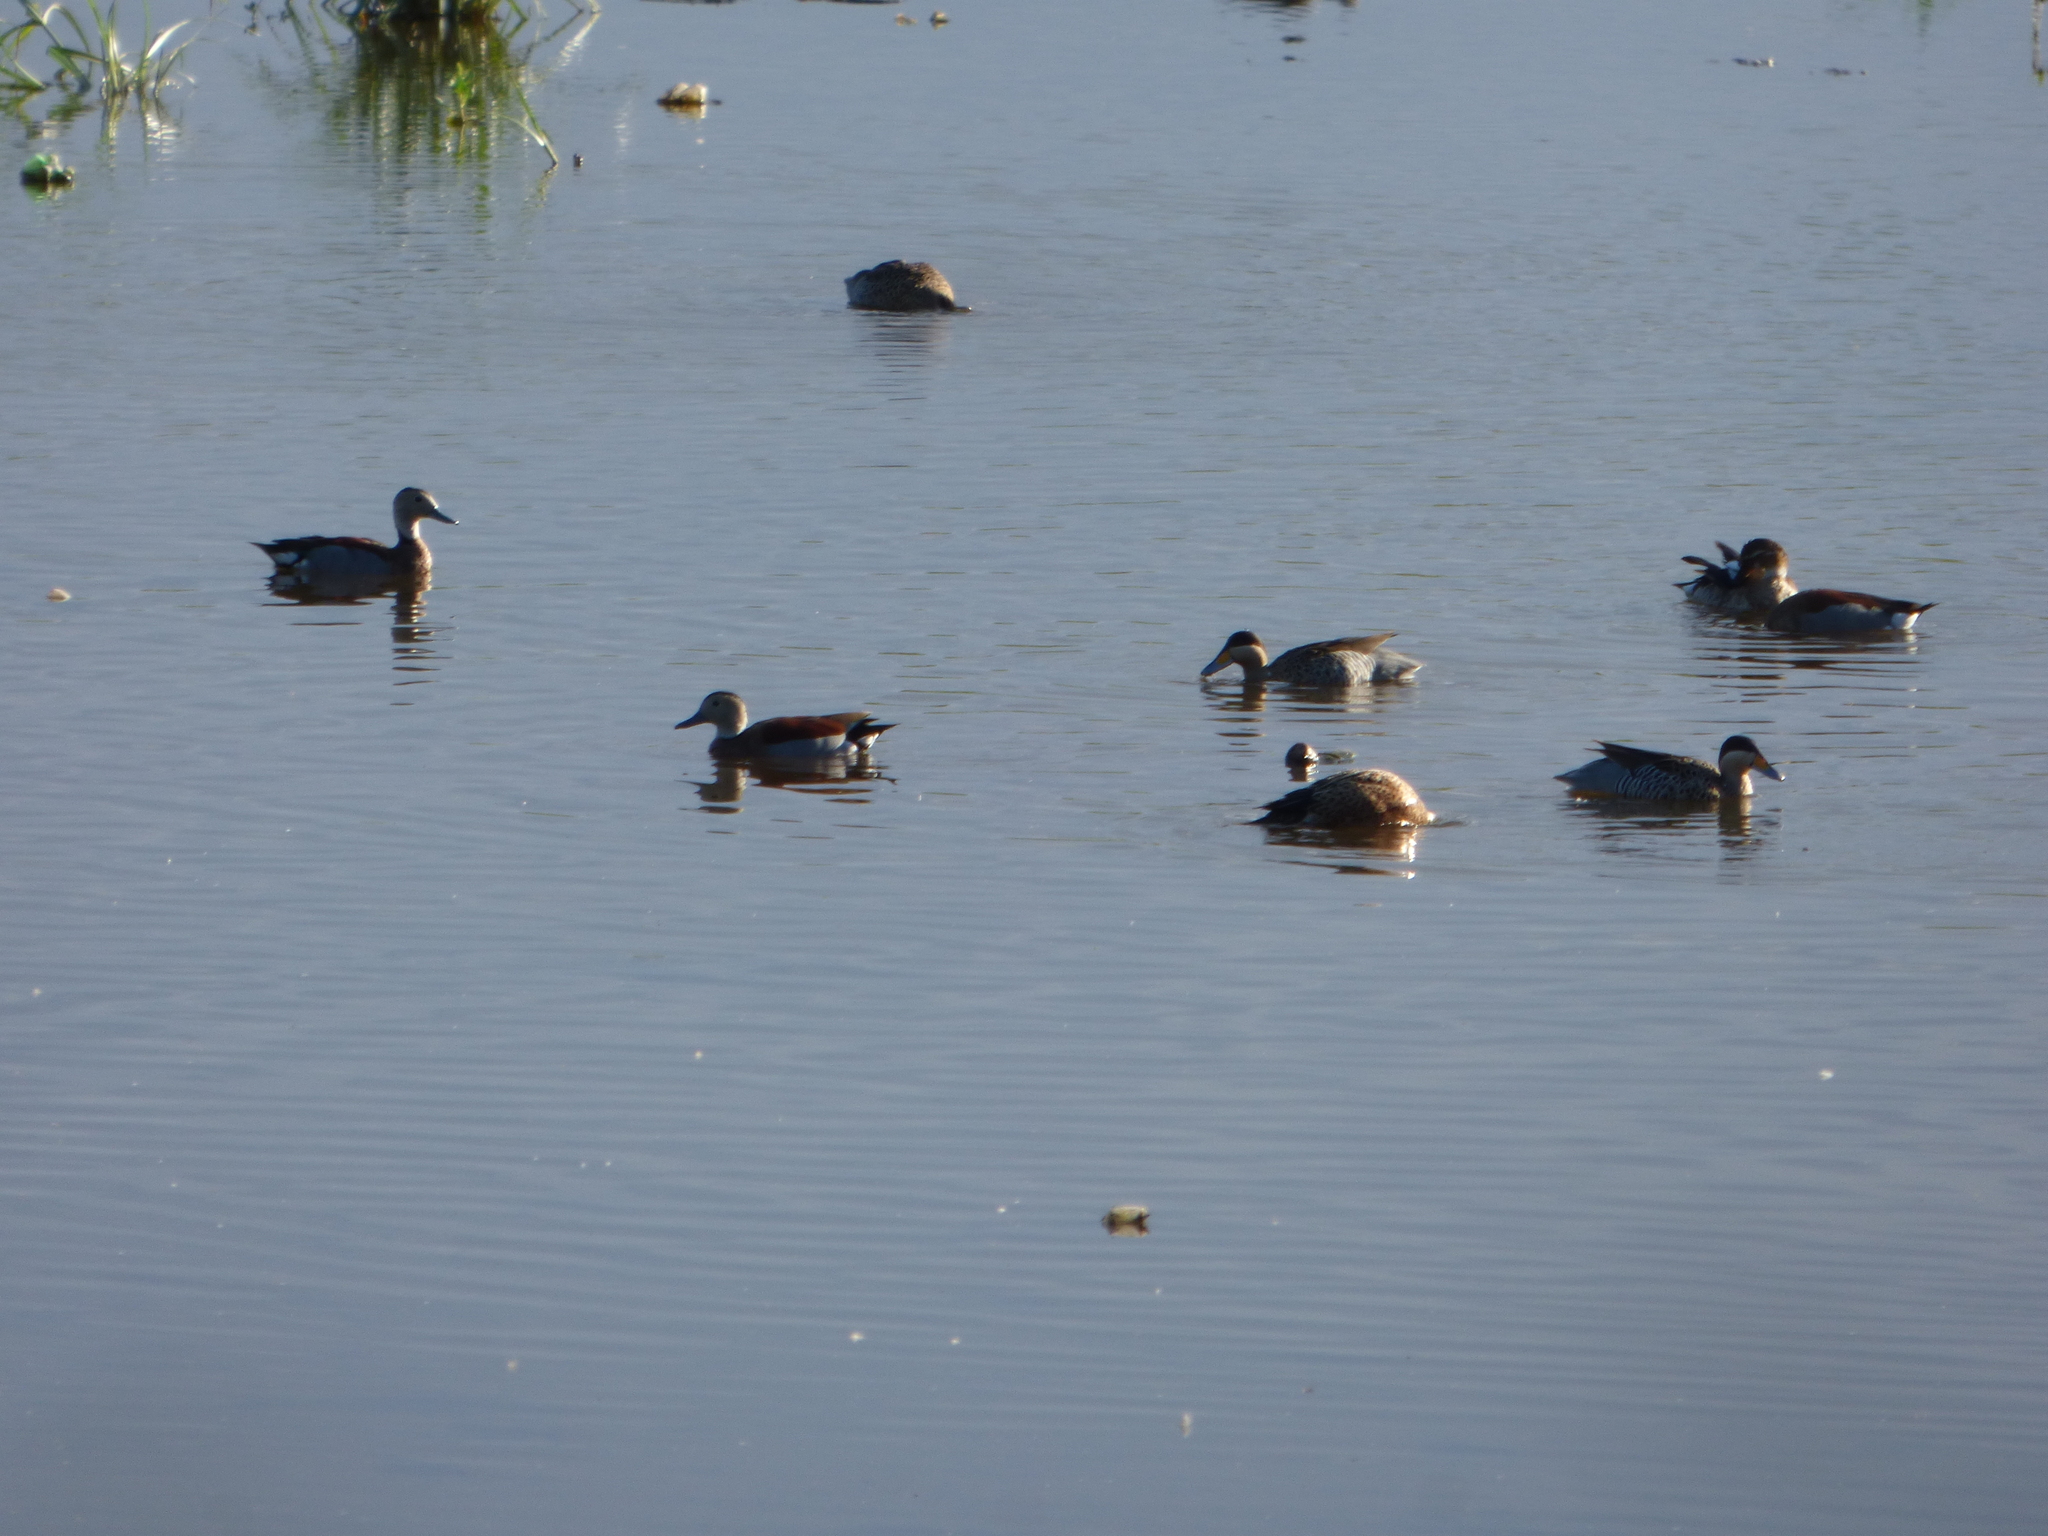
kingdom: Animalia
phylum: Chordata
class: Aves
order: Anseriformes
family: Anatidae
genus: Spatula
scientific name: Spatula versicolor
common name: Silver teal
